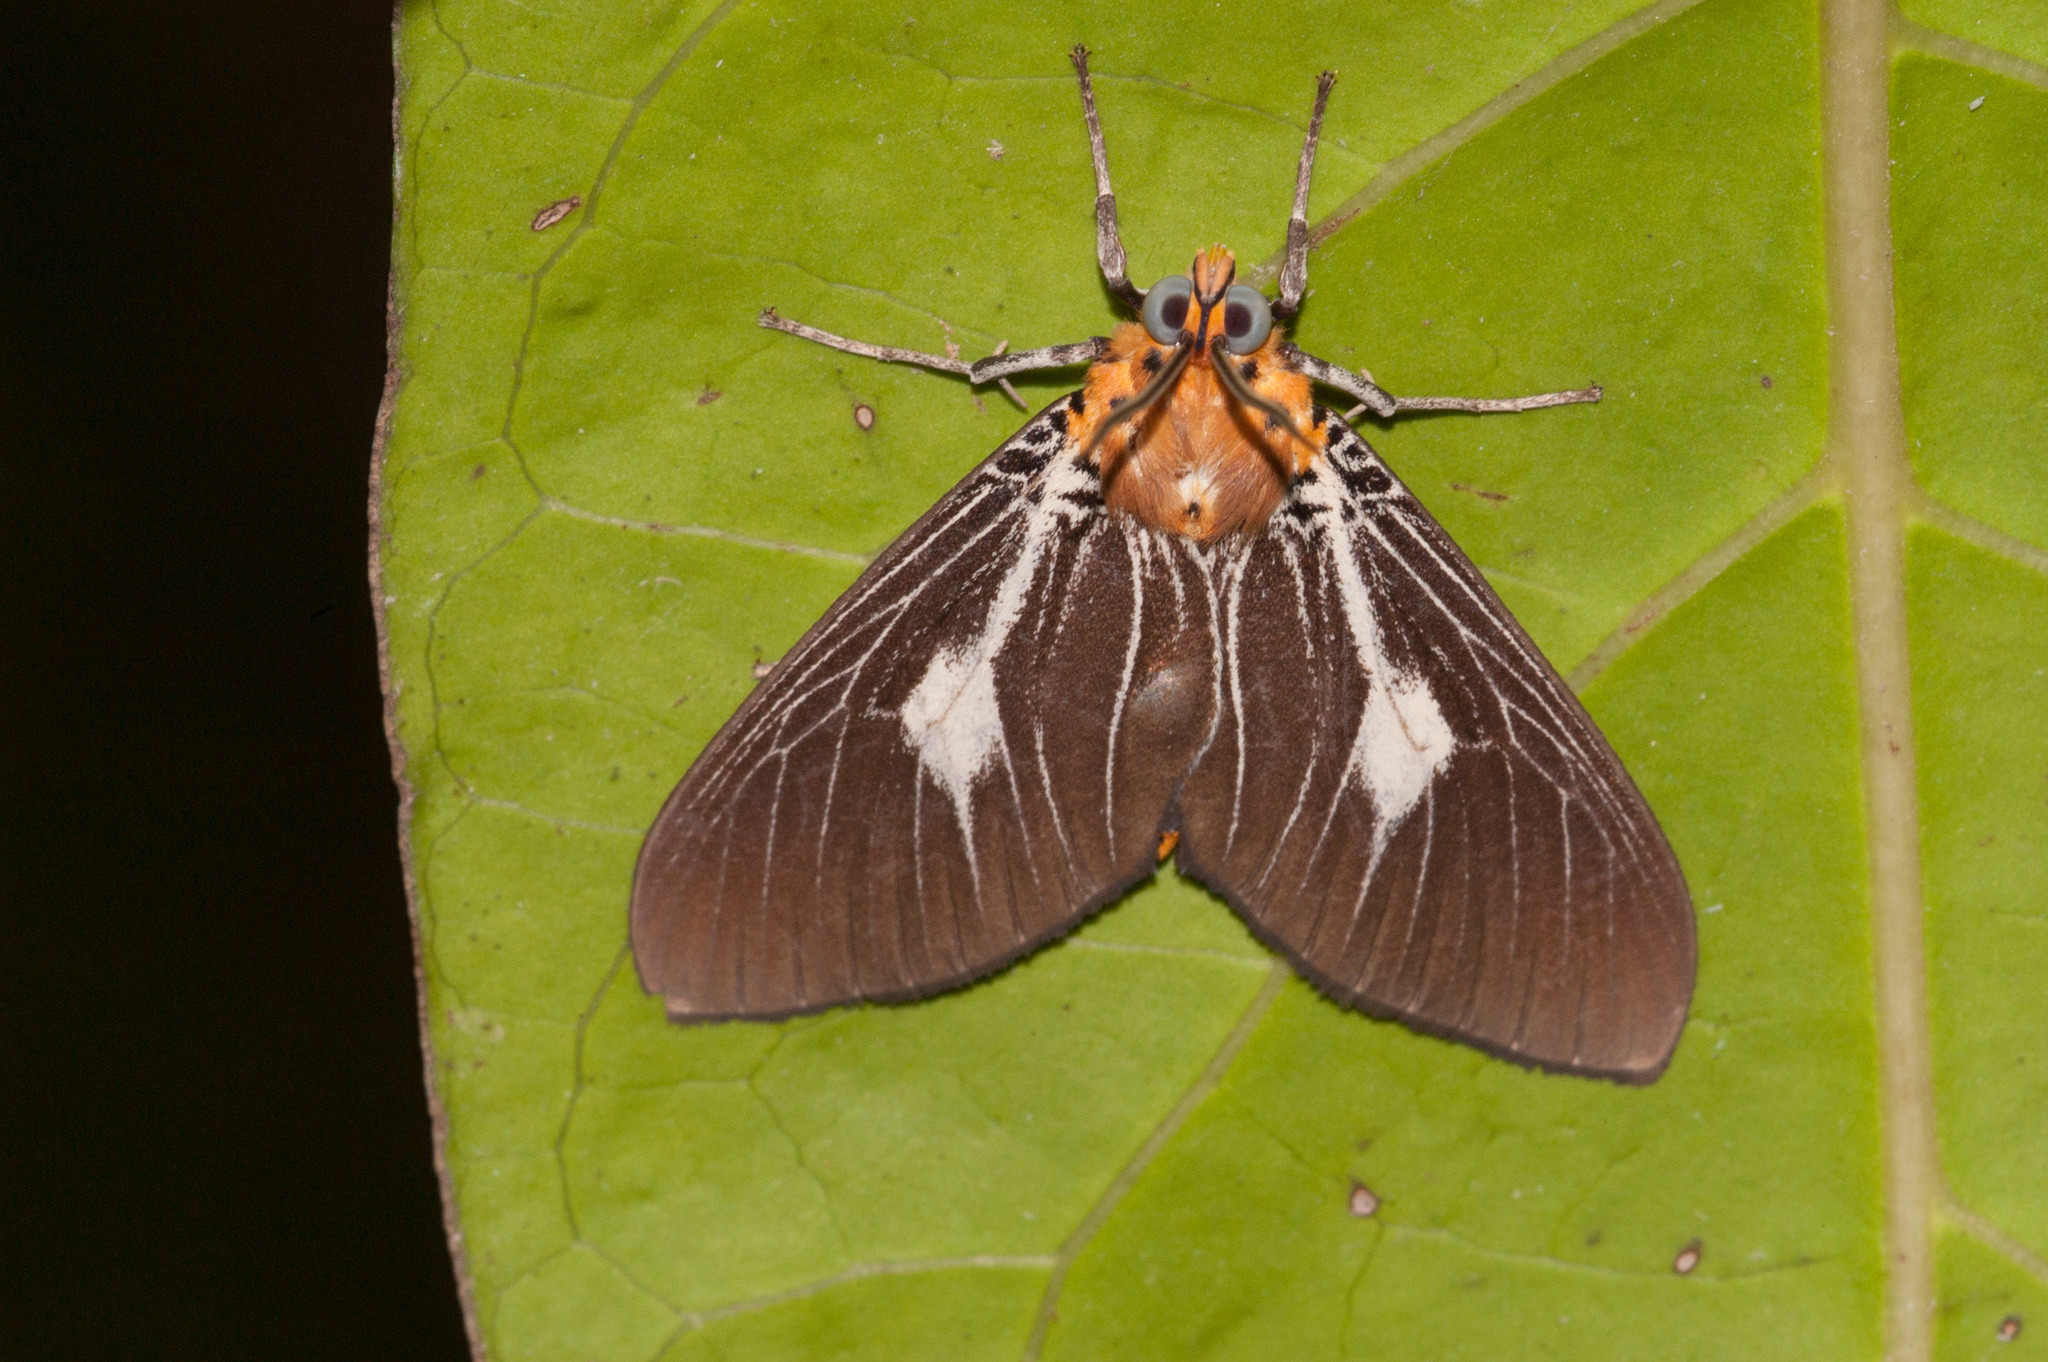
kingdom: Animalia
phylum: Arthropoda
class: Insecta
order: Lepidoptera
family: Erebidae
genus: Asota
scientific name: Asota heliconia
